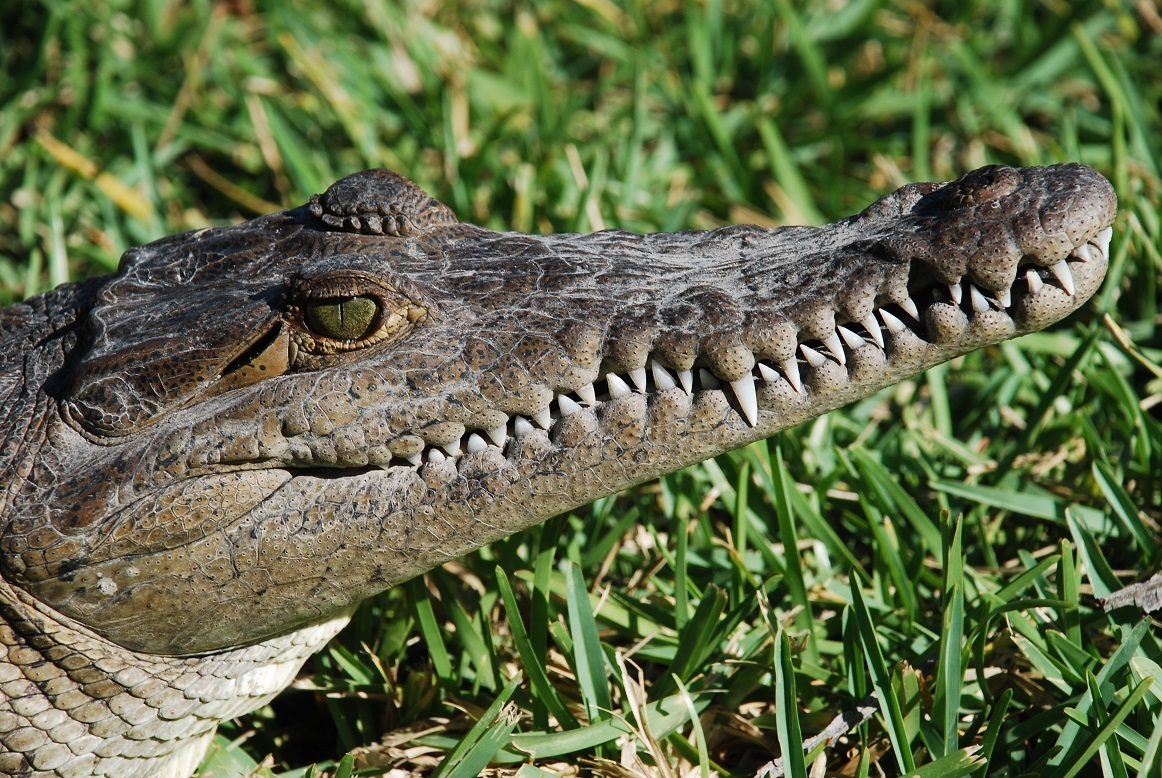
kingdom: Animalia
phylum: Chordata
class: Crocodylia
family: Crocodylidae
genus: Crocodylus
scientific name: Crocodylus acutus
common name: American crocodile
